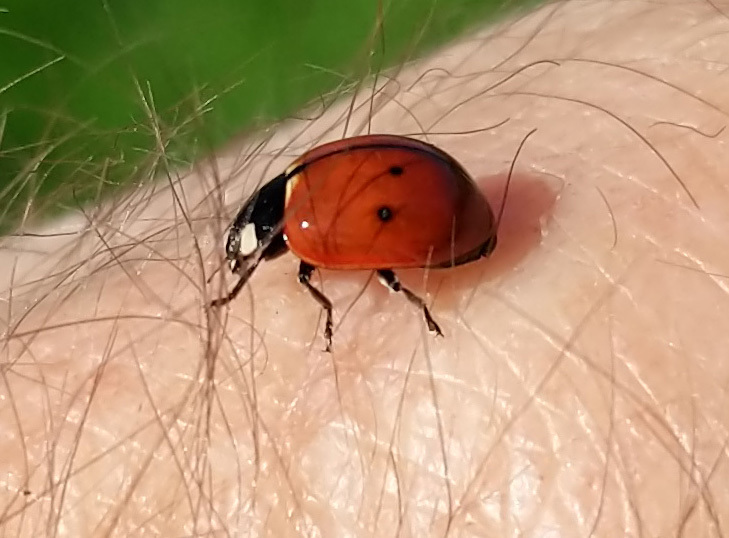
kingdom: Animalia
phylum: Arthropoda
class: Insecta
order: Coleoptera
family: Coccinellidae
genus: Coccinella
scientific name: Coccinella californica
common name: Lady beetle
